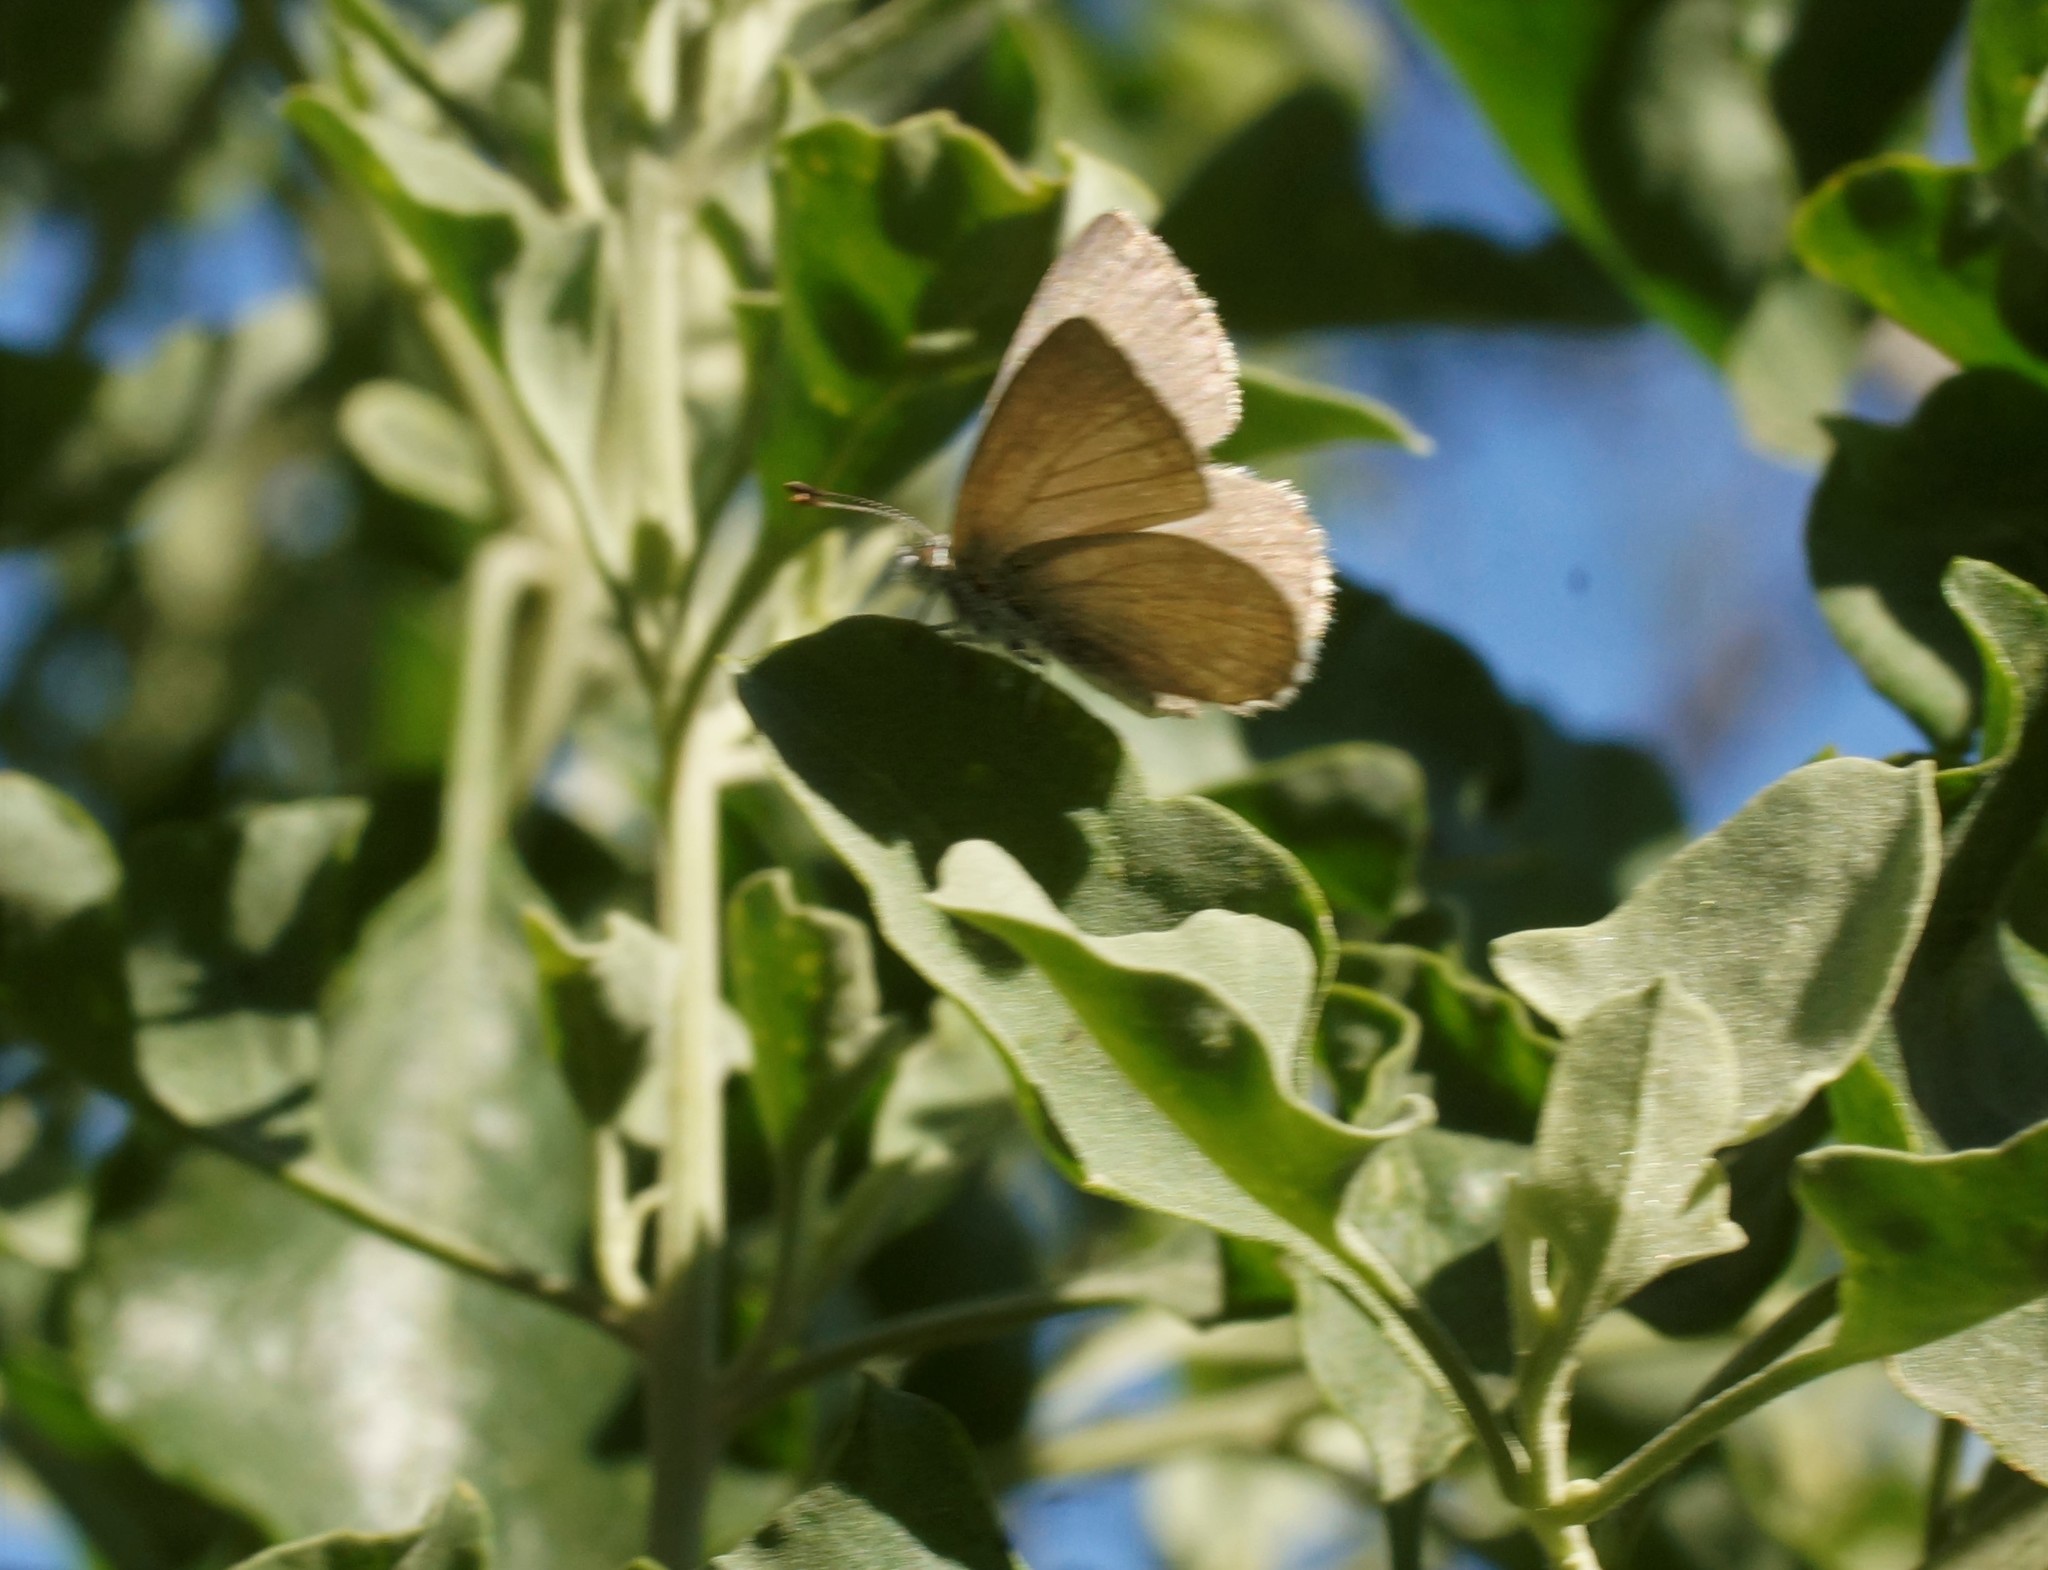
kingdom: Animalia
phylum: Arthropoda
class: Insecta
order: Lepidoptera
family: Lycaenidae
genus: Zizina
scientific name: Zizina labradus
